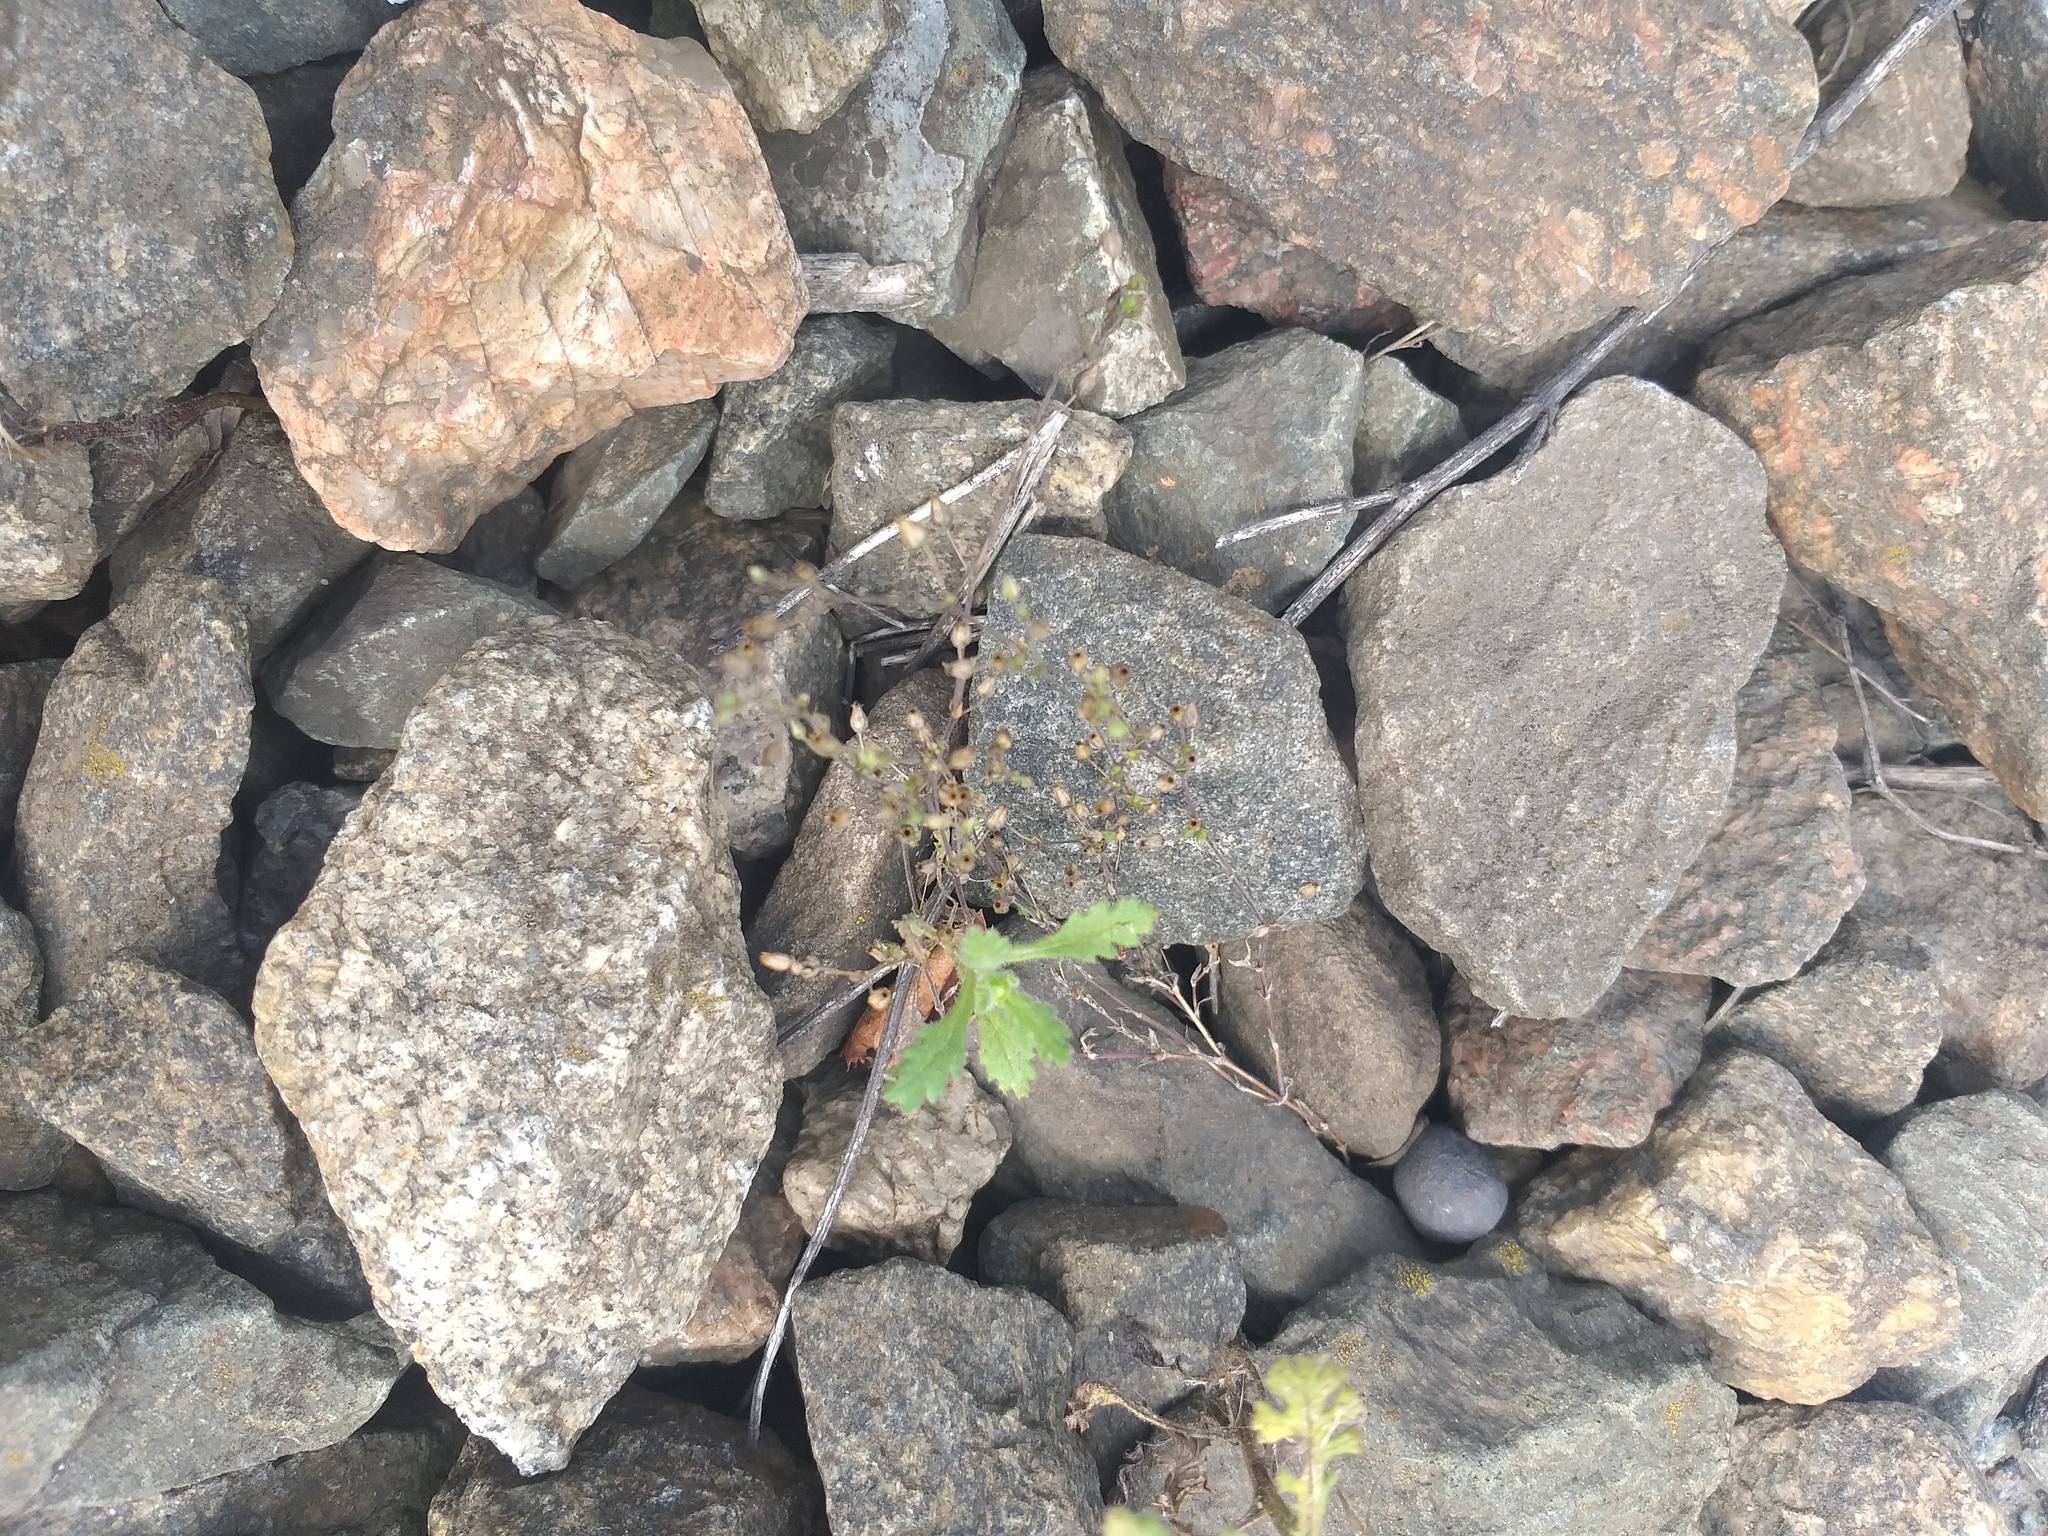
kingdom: Plantae
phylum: Tracheophyta
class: Magnoliopsida
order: Caryophyllales
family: Caryophyllaceae
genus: Arenaria
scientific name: Arenaria serpyllifolia
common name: Thyme-leaved sandwort
